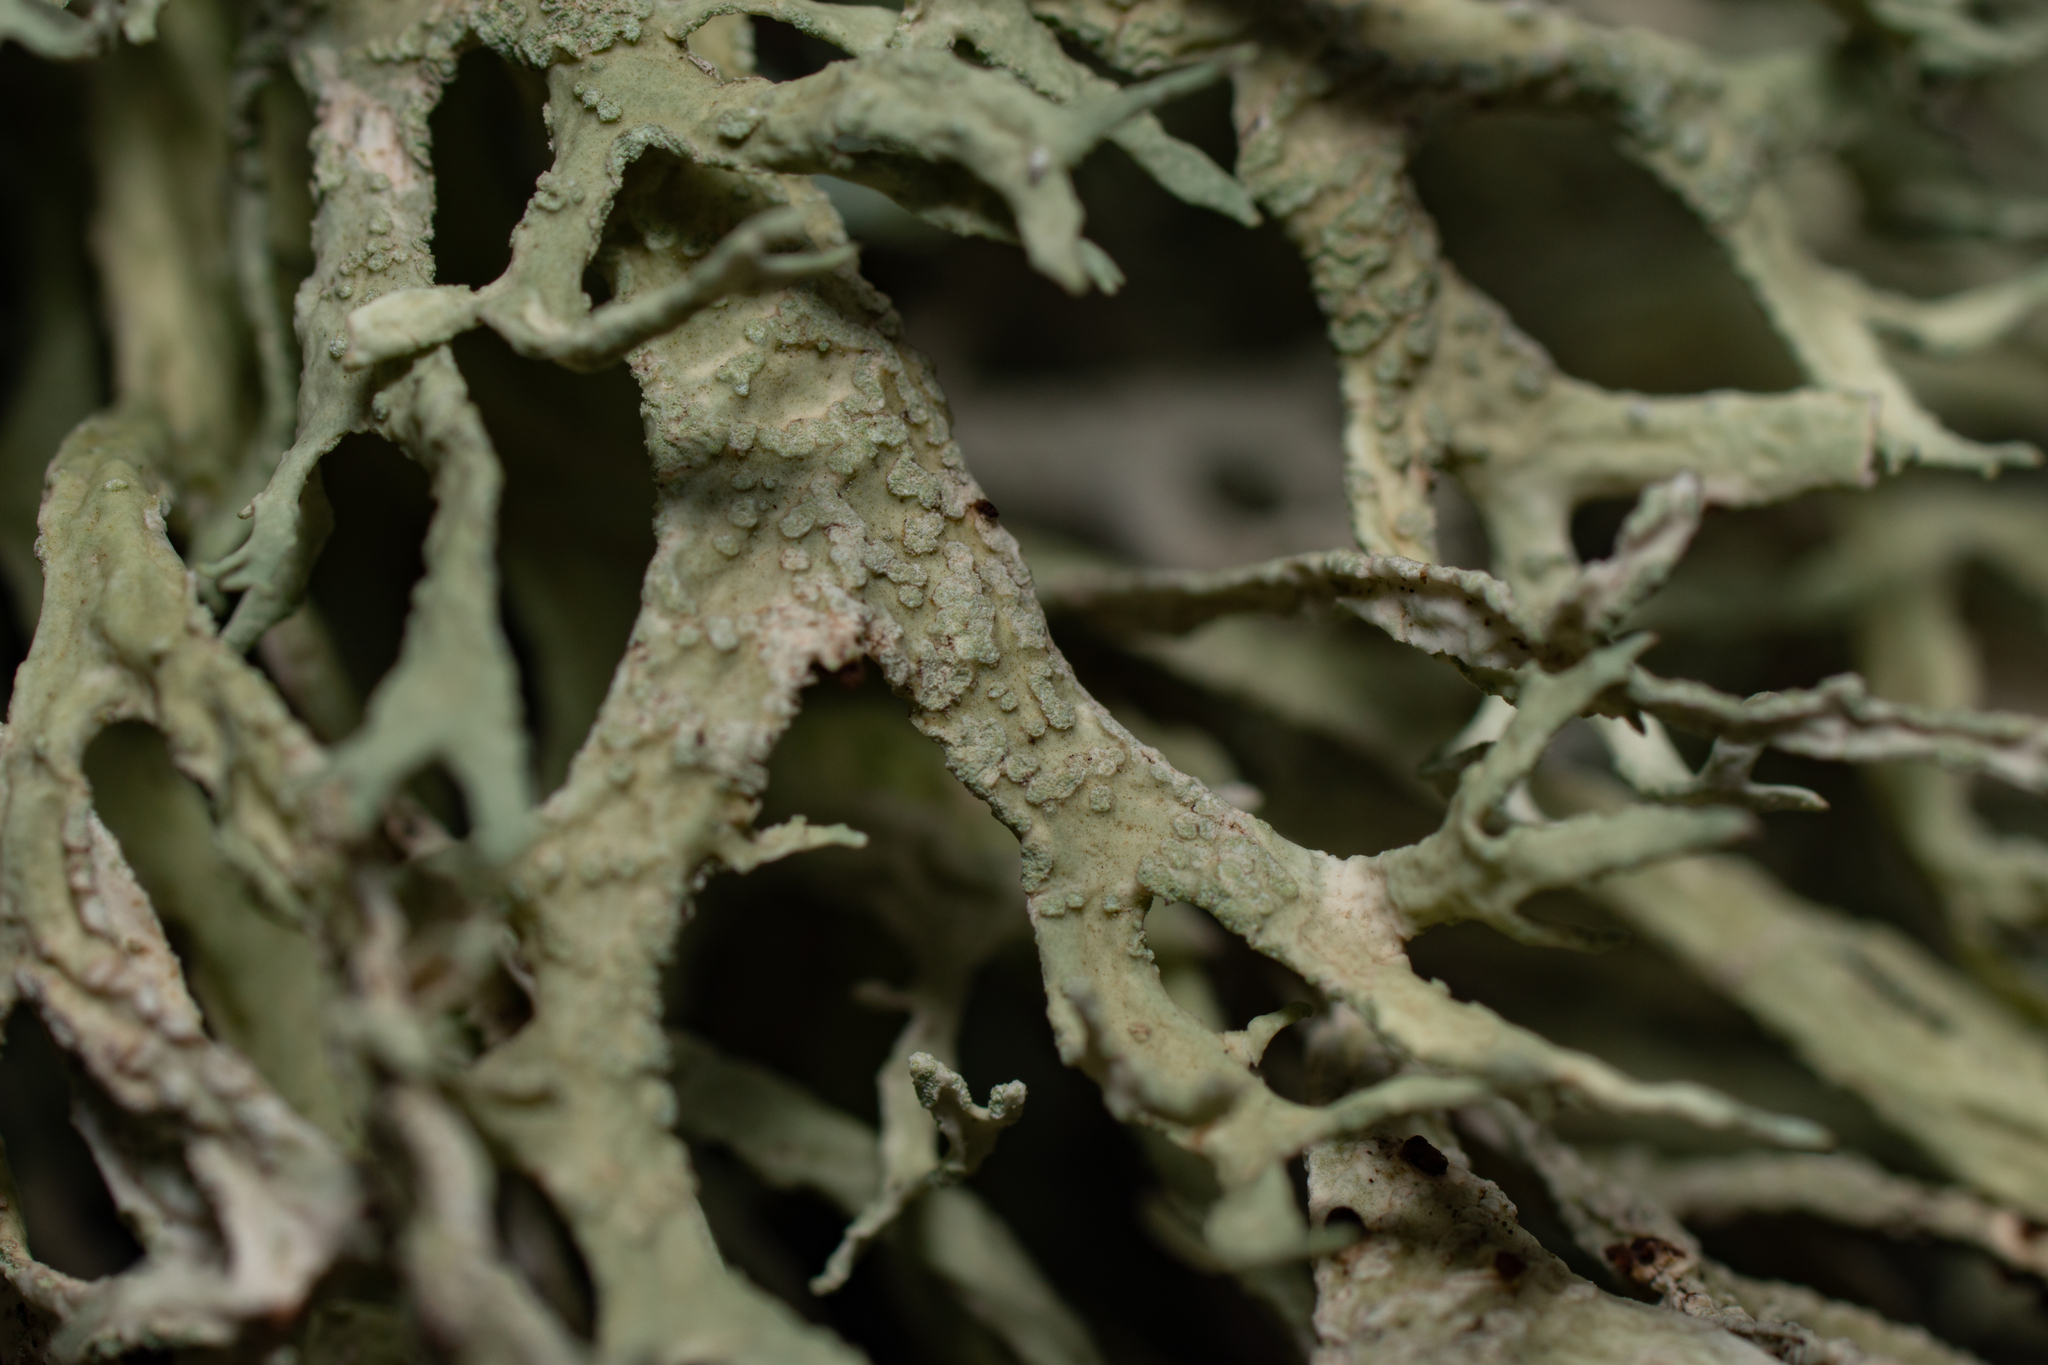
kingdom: Fungi
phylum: Ascomycota
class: Lecanoromycetes
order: Lecanorales
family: Parmeliaceae
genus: Evernia
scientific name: Evernia prunastri
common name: Oak moss
